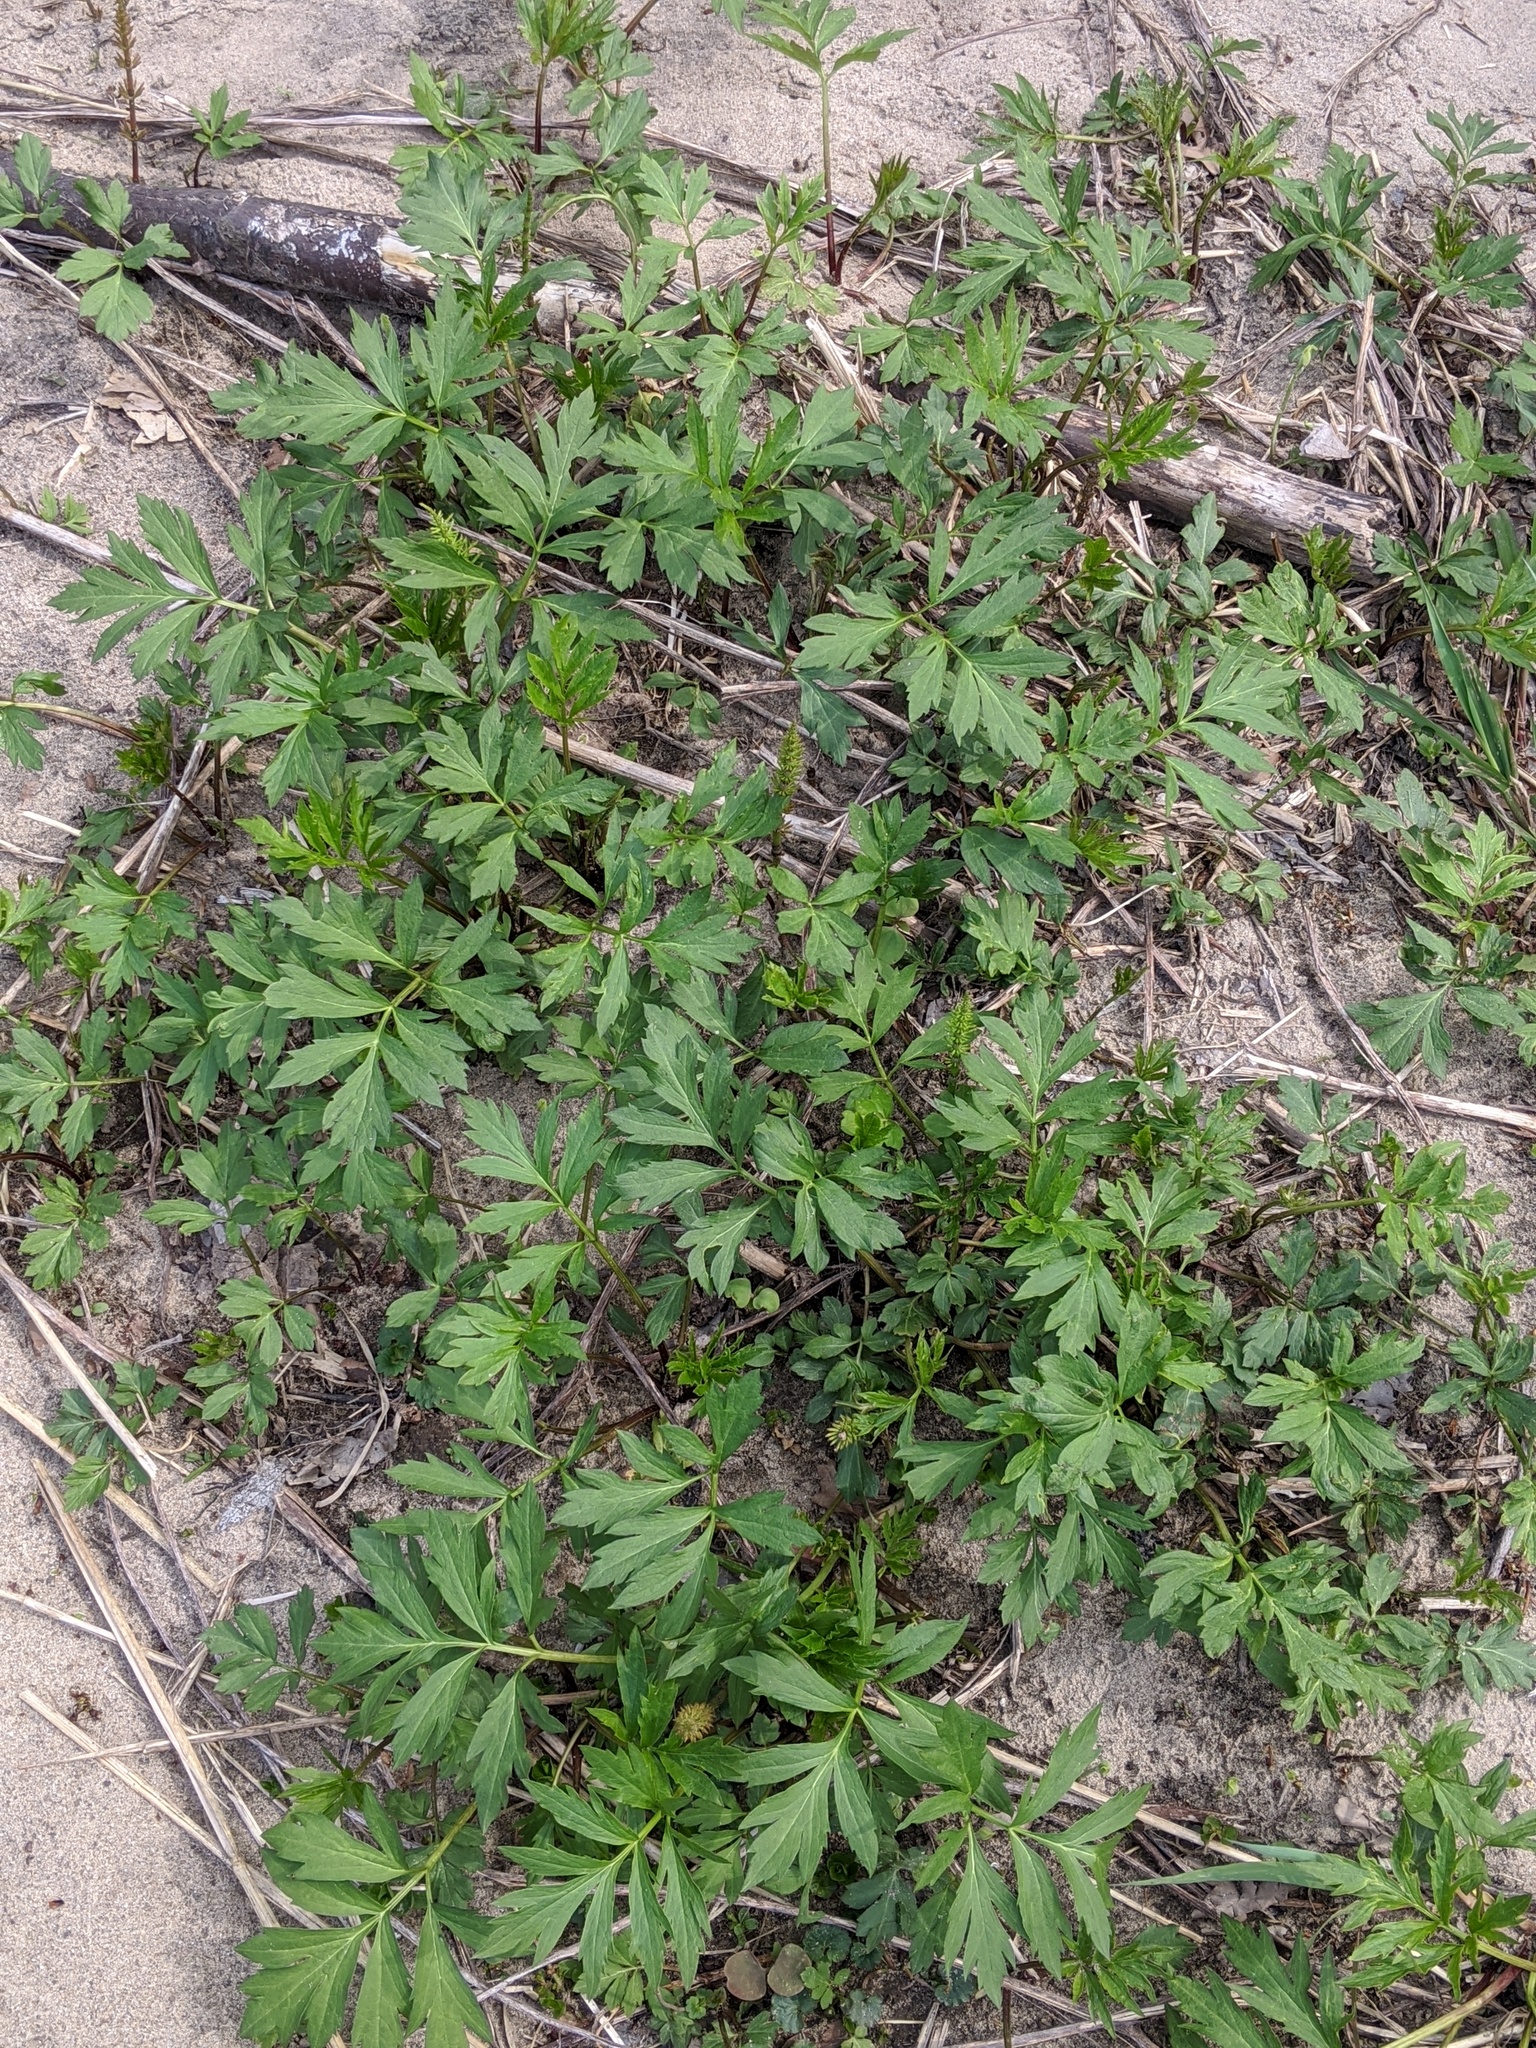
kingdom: Plantae
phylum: Tracheophyta
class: Magnoliopsida
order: Asterales
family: Asteraceae
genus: Rudbeckia
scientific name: Rudbeckia laciniata
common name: Coneflower
